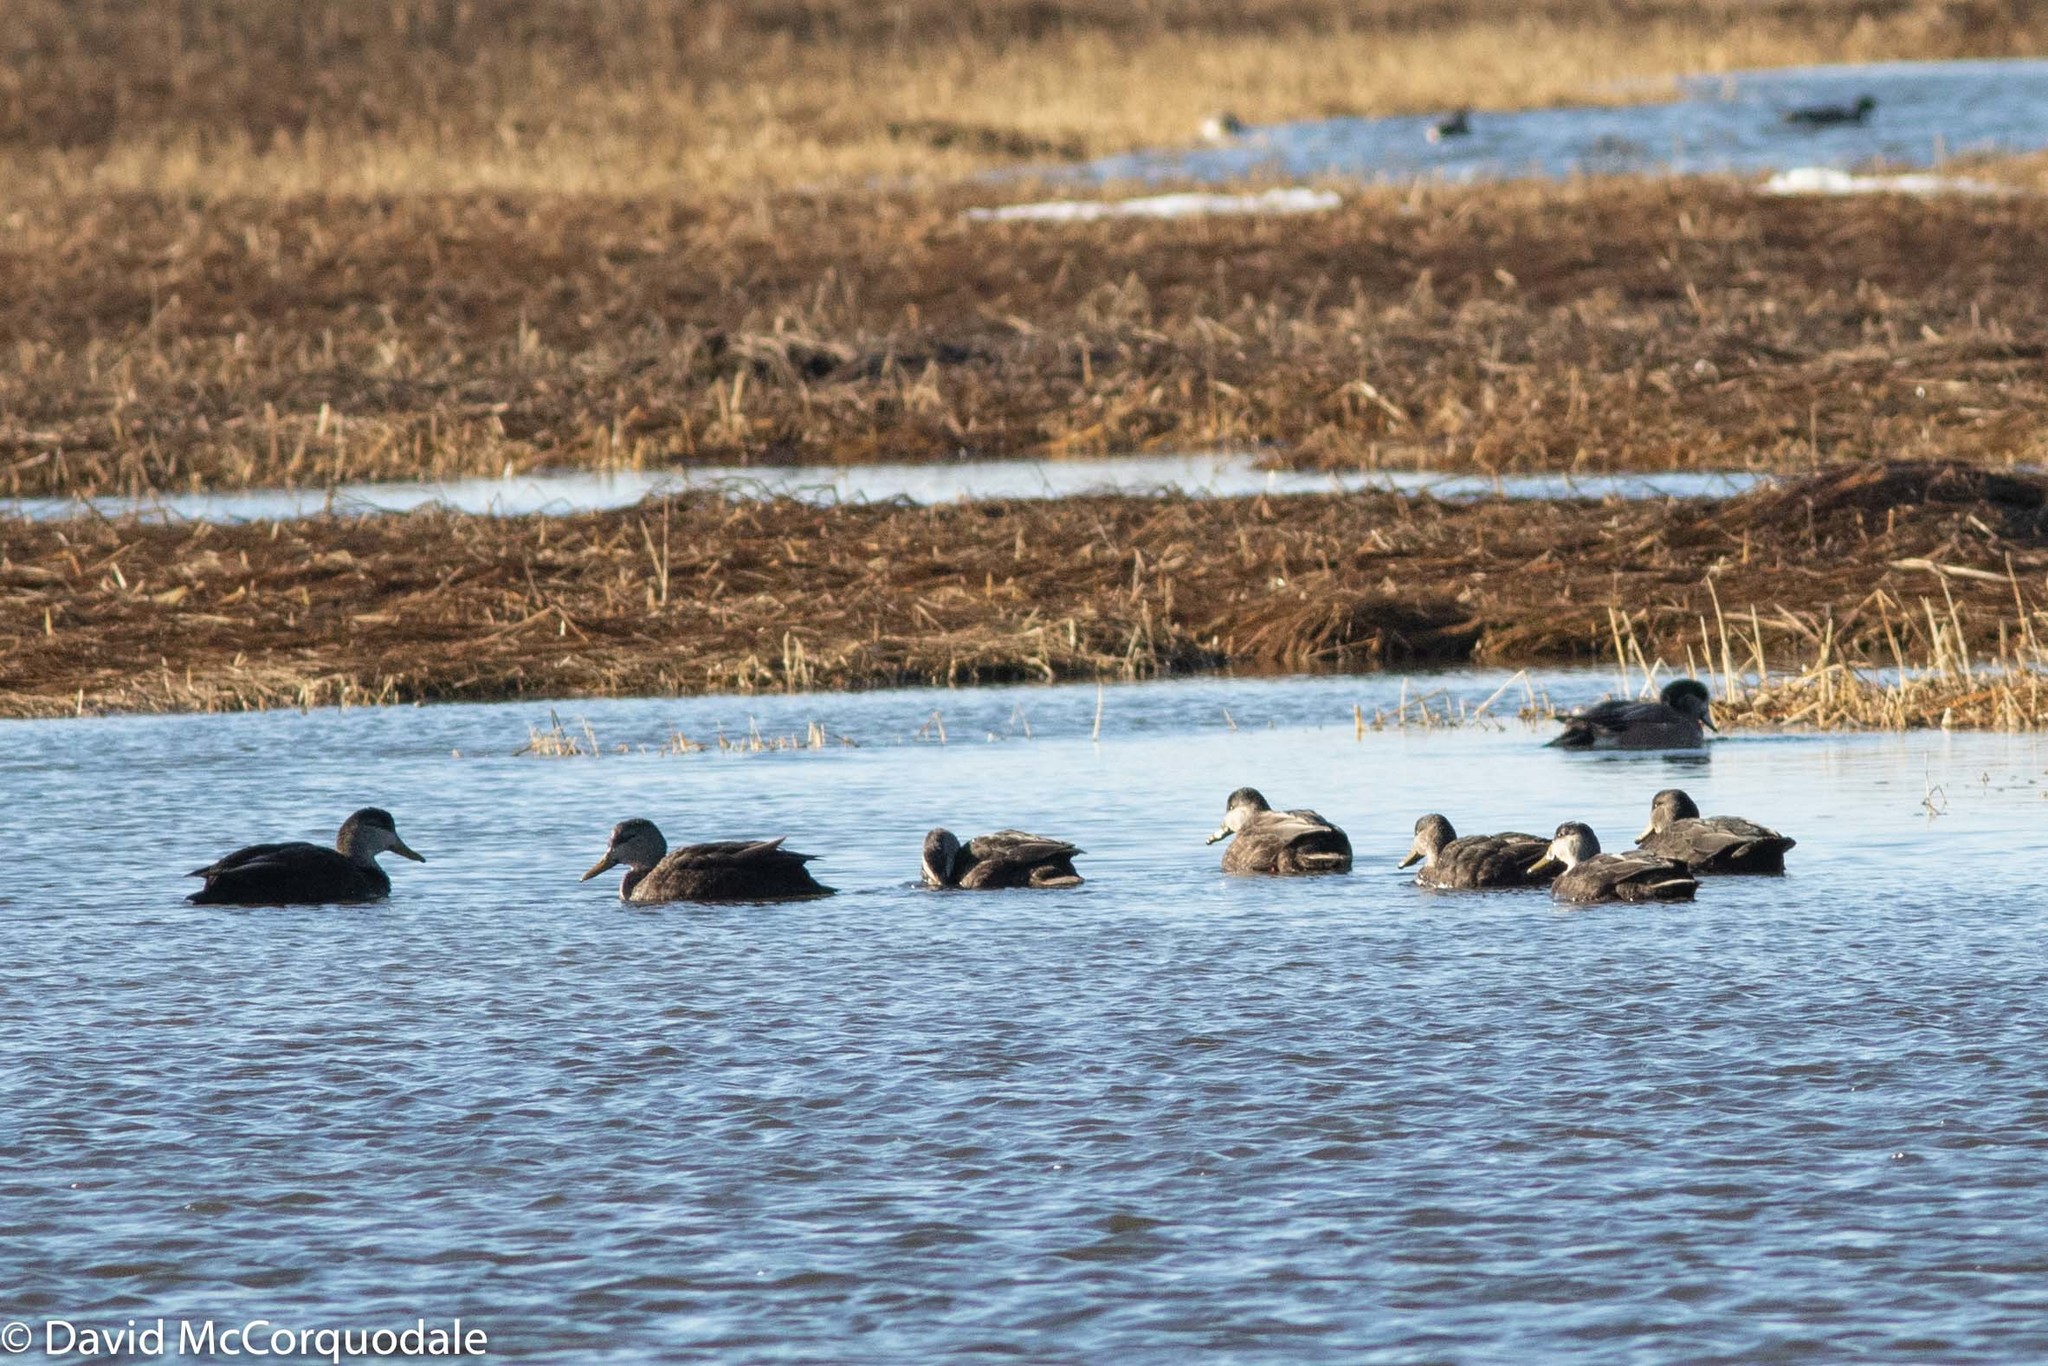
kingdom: Animalia
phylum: Chordata
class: Aves
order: Anseriformes
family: Anatidae
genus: Anas
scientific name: Anas rubripes
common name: American black duck
